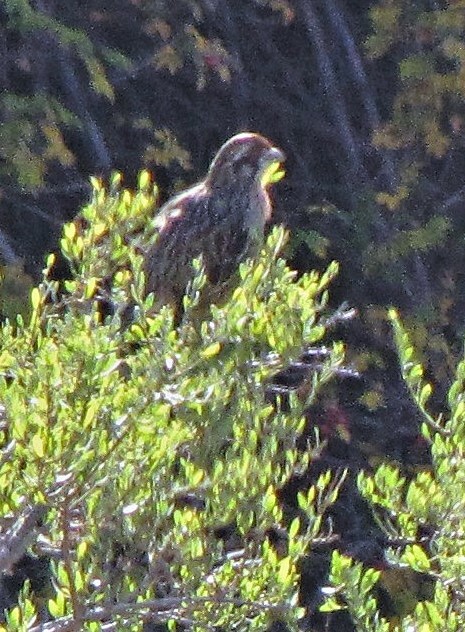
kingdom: Animalia
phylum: Chordata
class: Aves
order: Passeriformes
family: Cotingidae
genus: Phytotoma
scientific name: Phytotoma rara
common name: Rufous-tailed plantcutter
